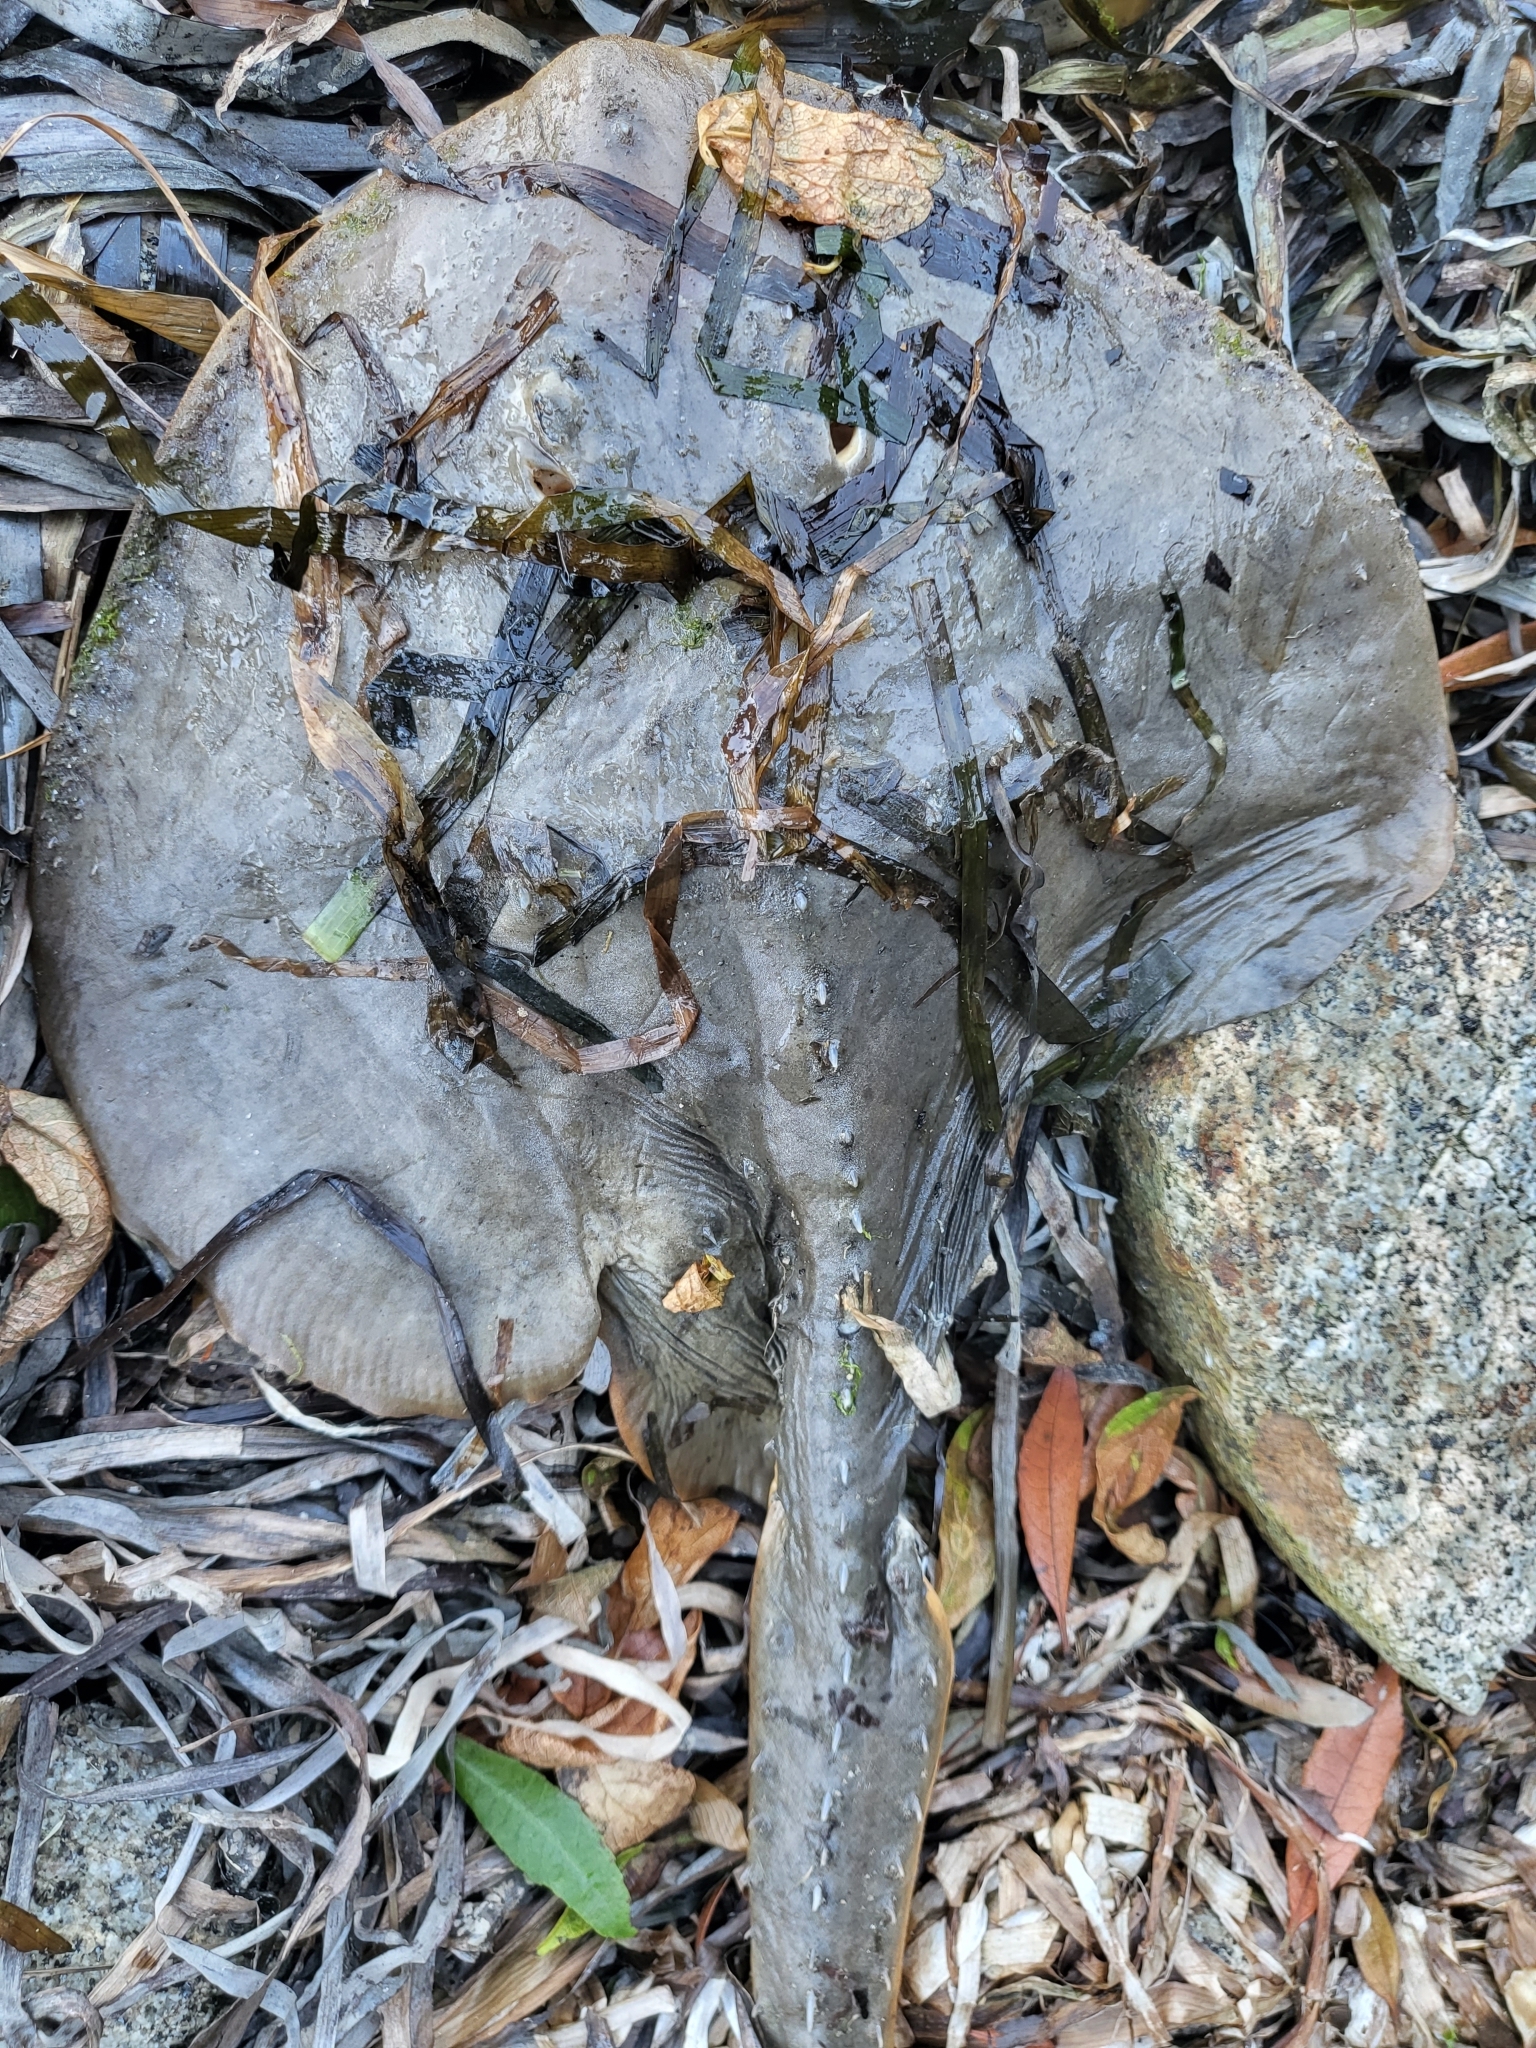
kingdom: Animalia
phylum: Chordata
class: Elasmobranchii
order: Rhinopristiformes
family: Rhinobatidae
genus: Platyrhinoidis
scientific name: Platyrhinoidis triseriata
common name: Thornback
